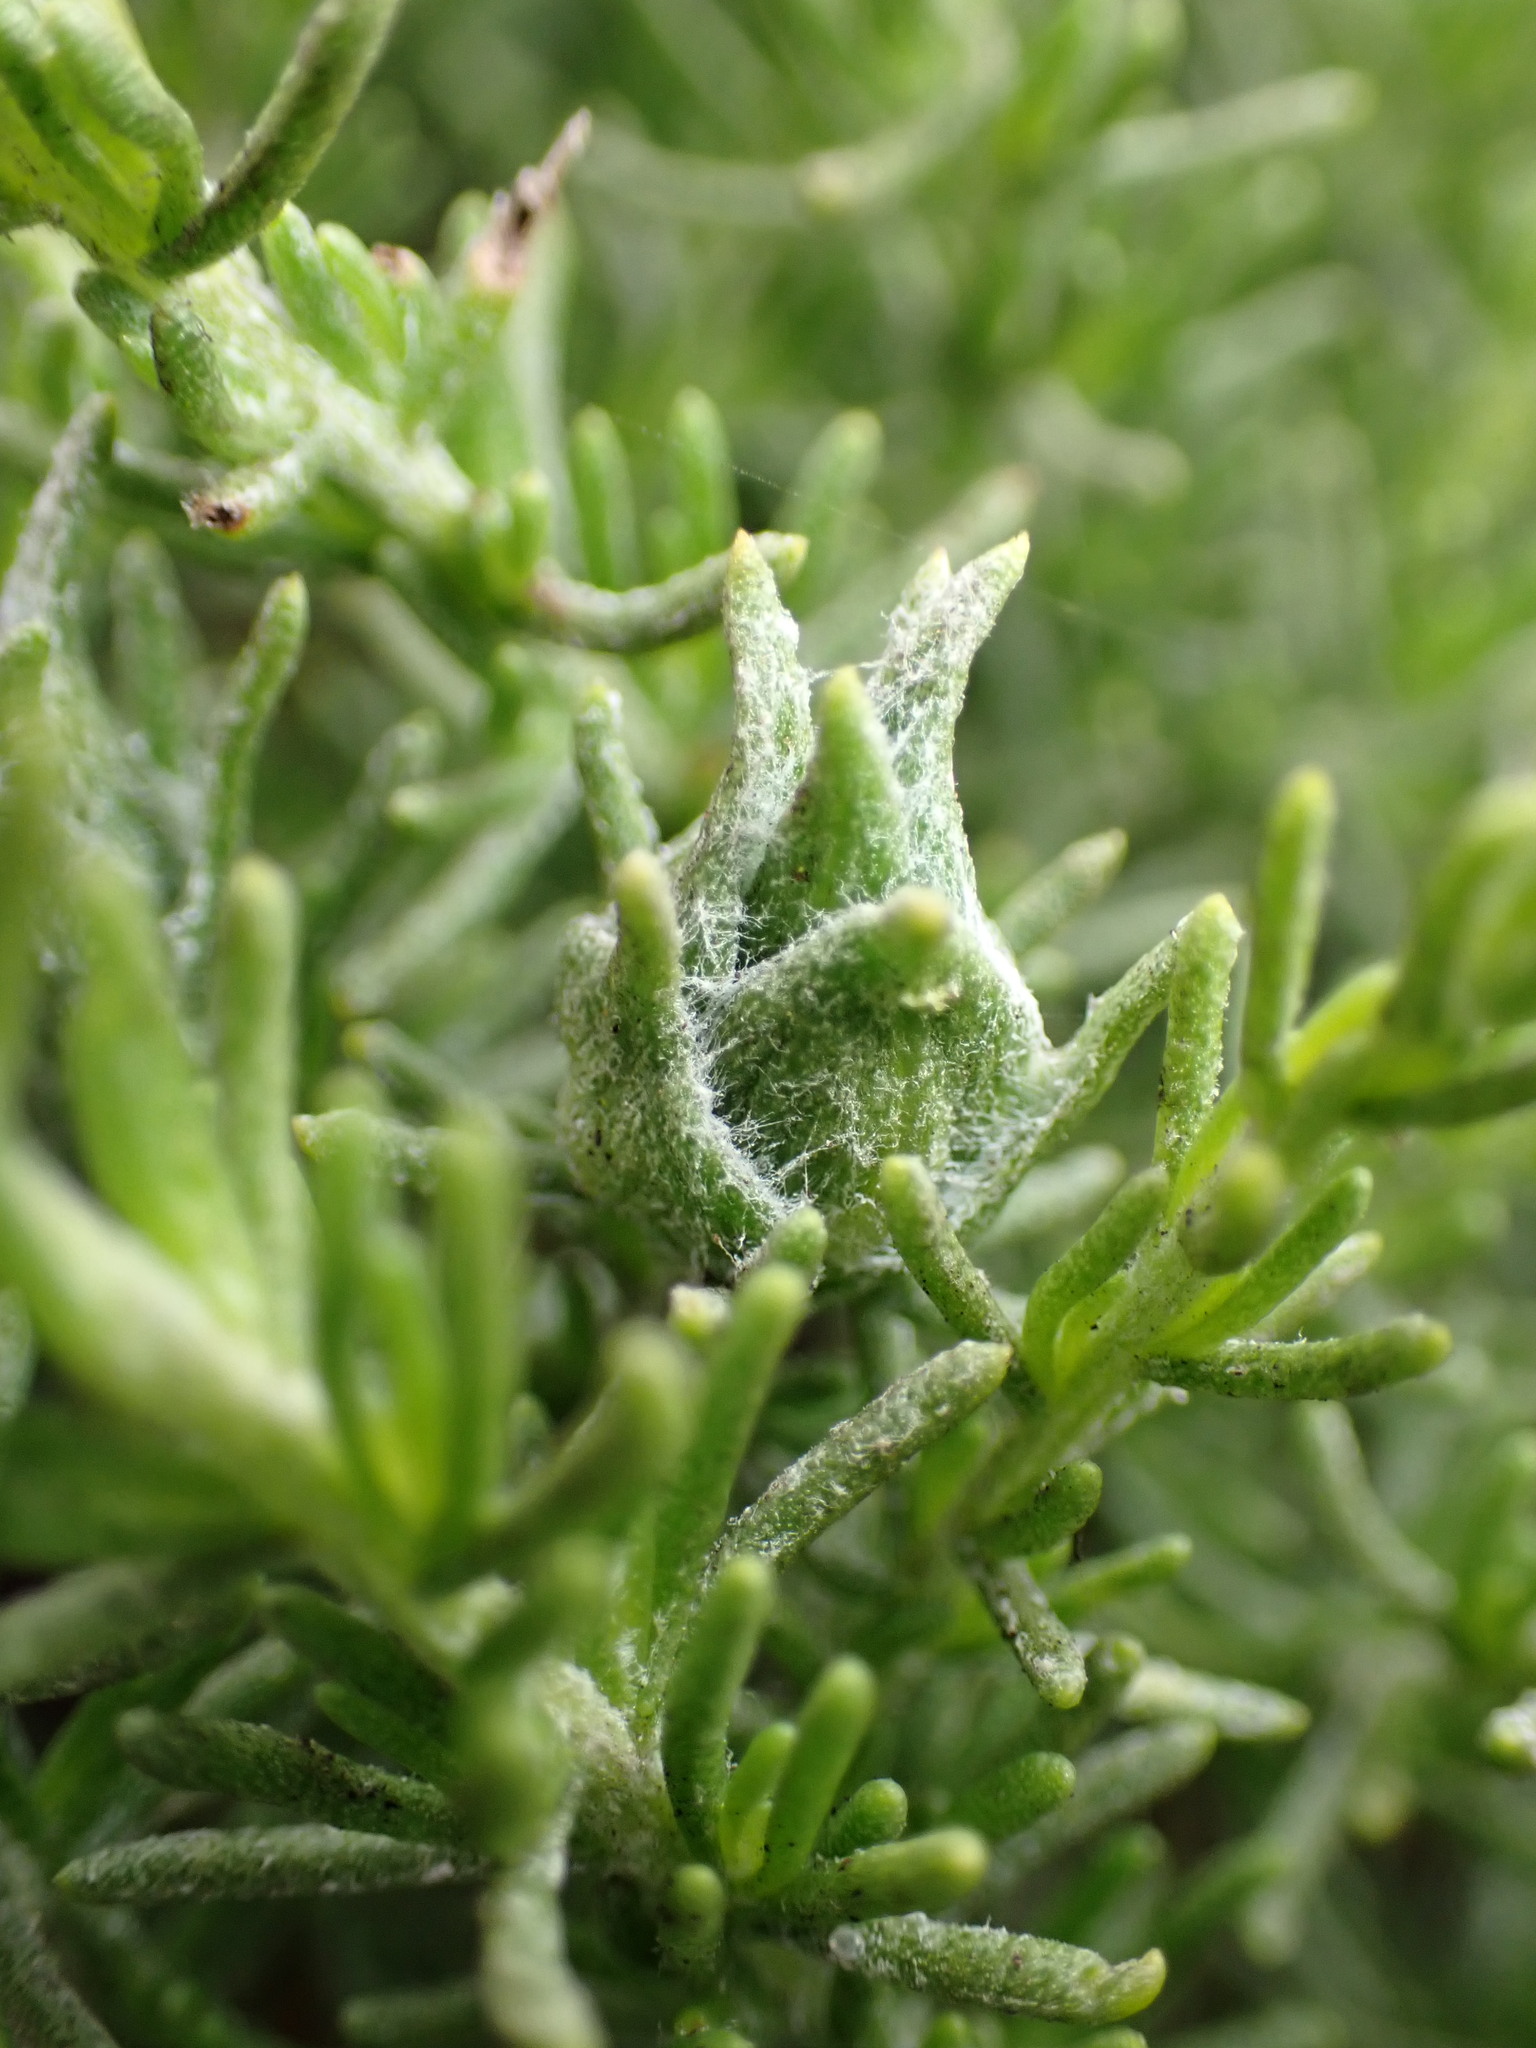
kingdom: Animalia
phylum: Arthropoda
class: Insecta
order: Diptera
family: Cecidomyiidae
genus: Prodiplosis
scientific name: Prodiplosis falcata
